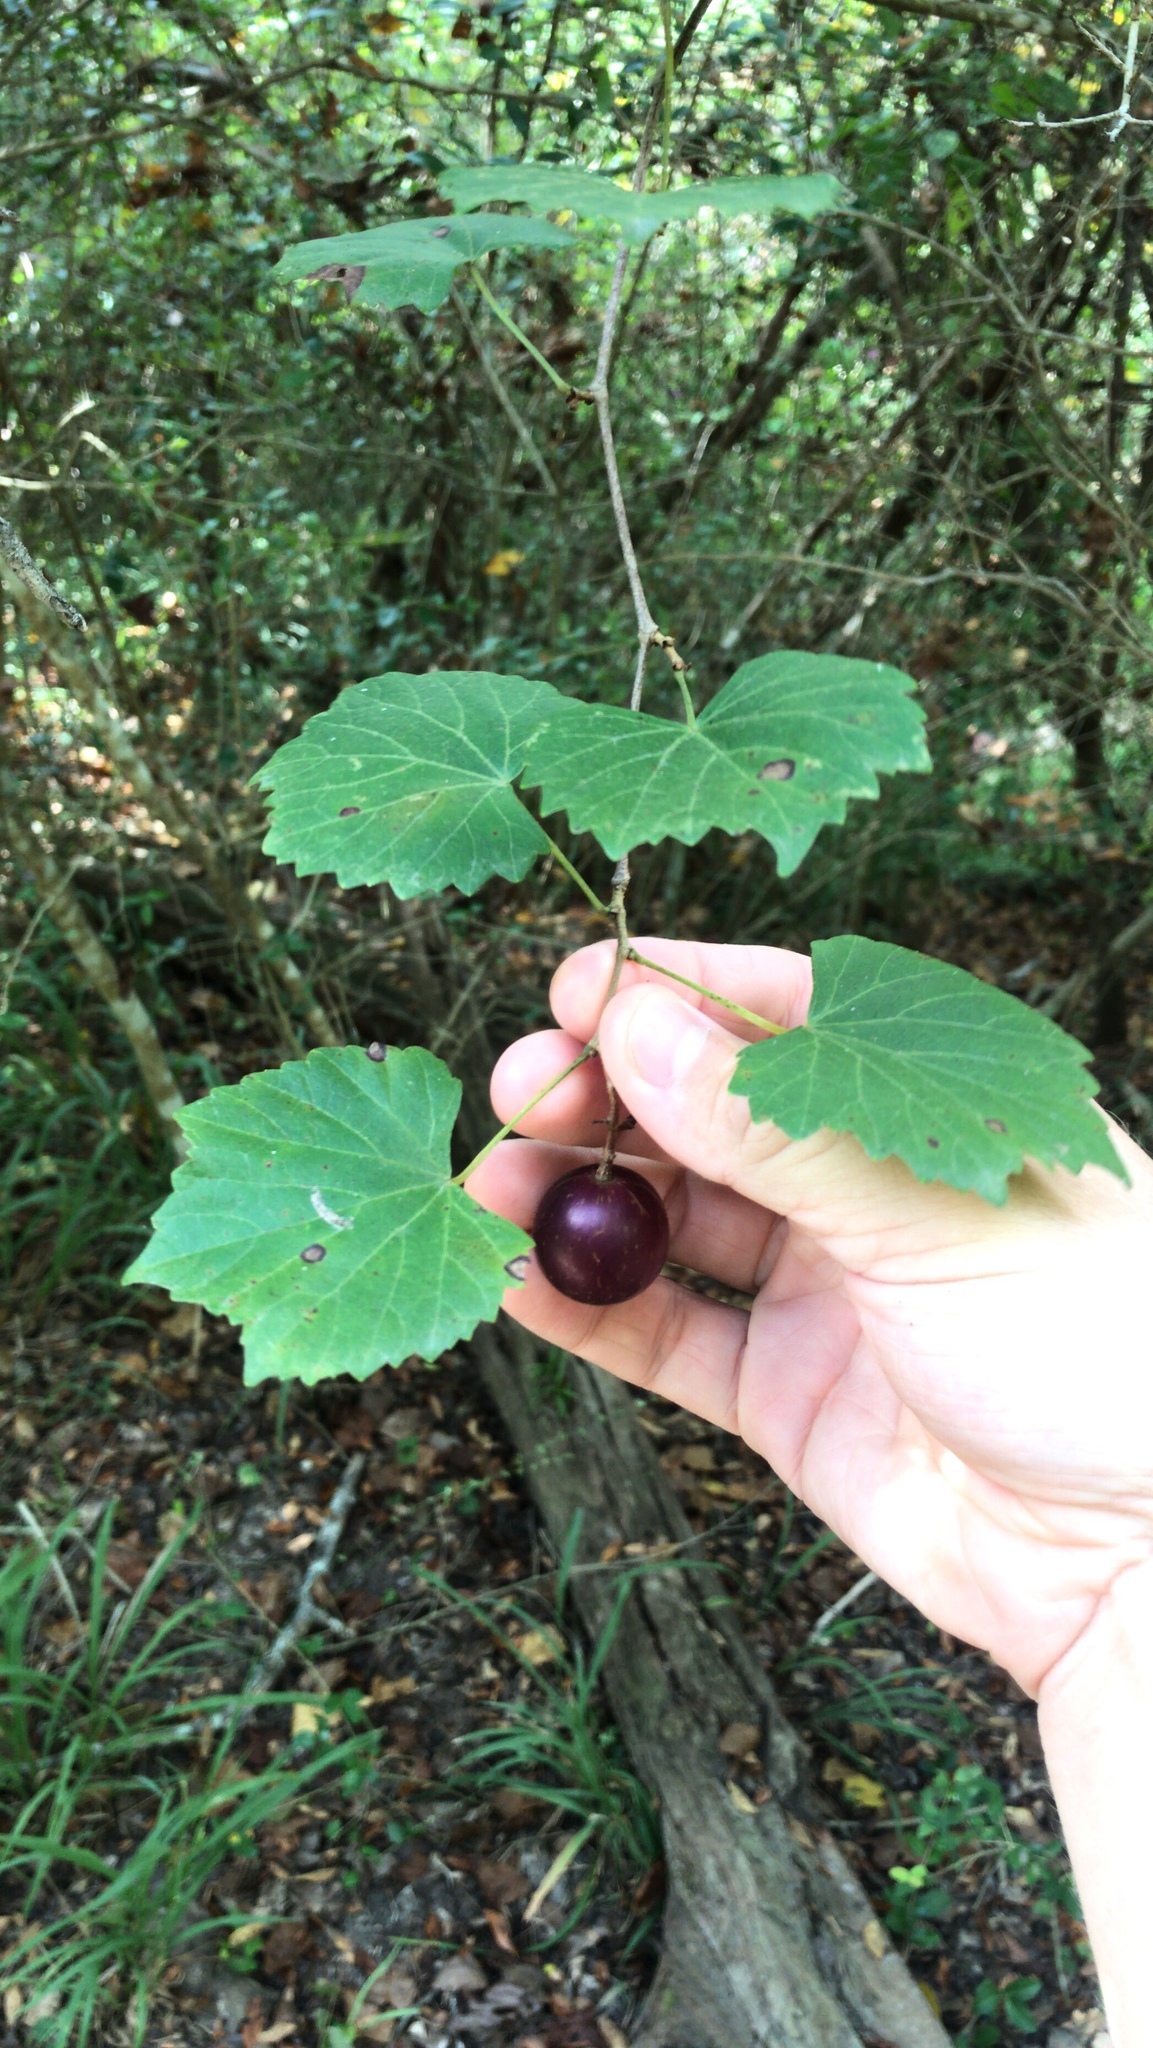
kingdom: Plantae
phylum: Tracheophyta
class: Magnoliopsida
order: Vitales
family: Vitaceae
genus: Vitis
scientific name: Vitis rotundifolia
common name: Muscadine grape
